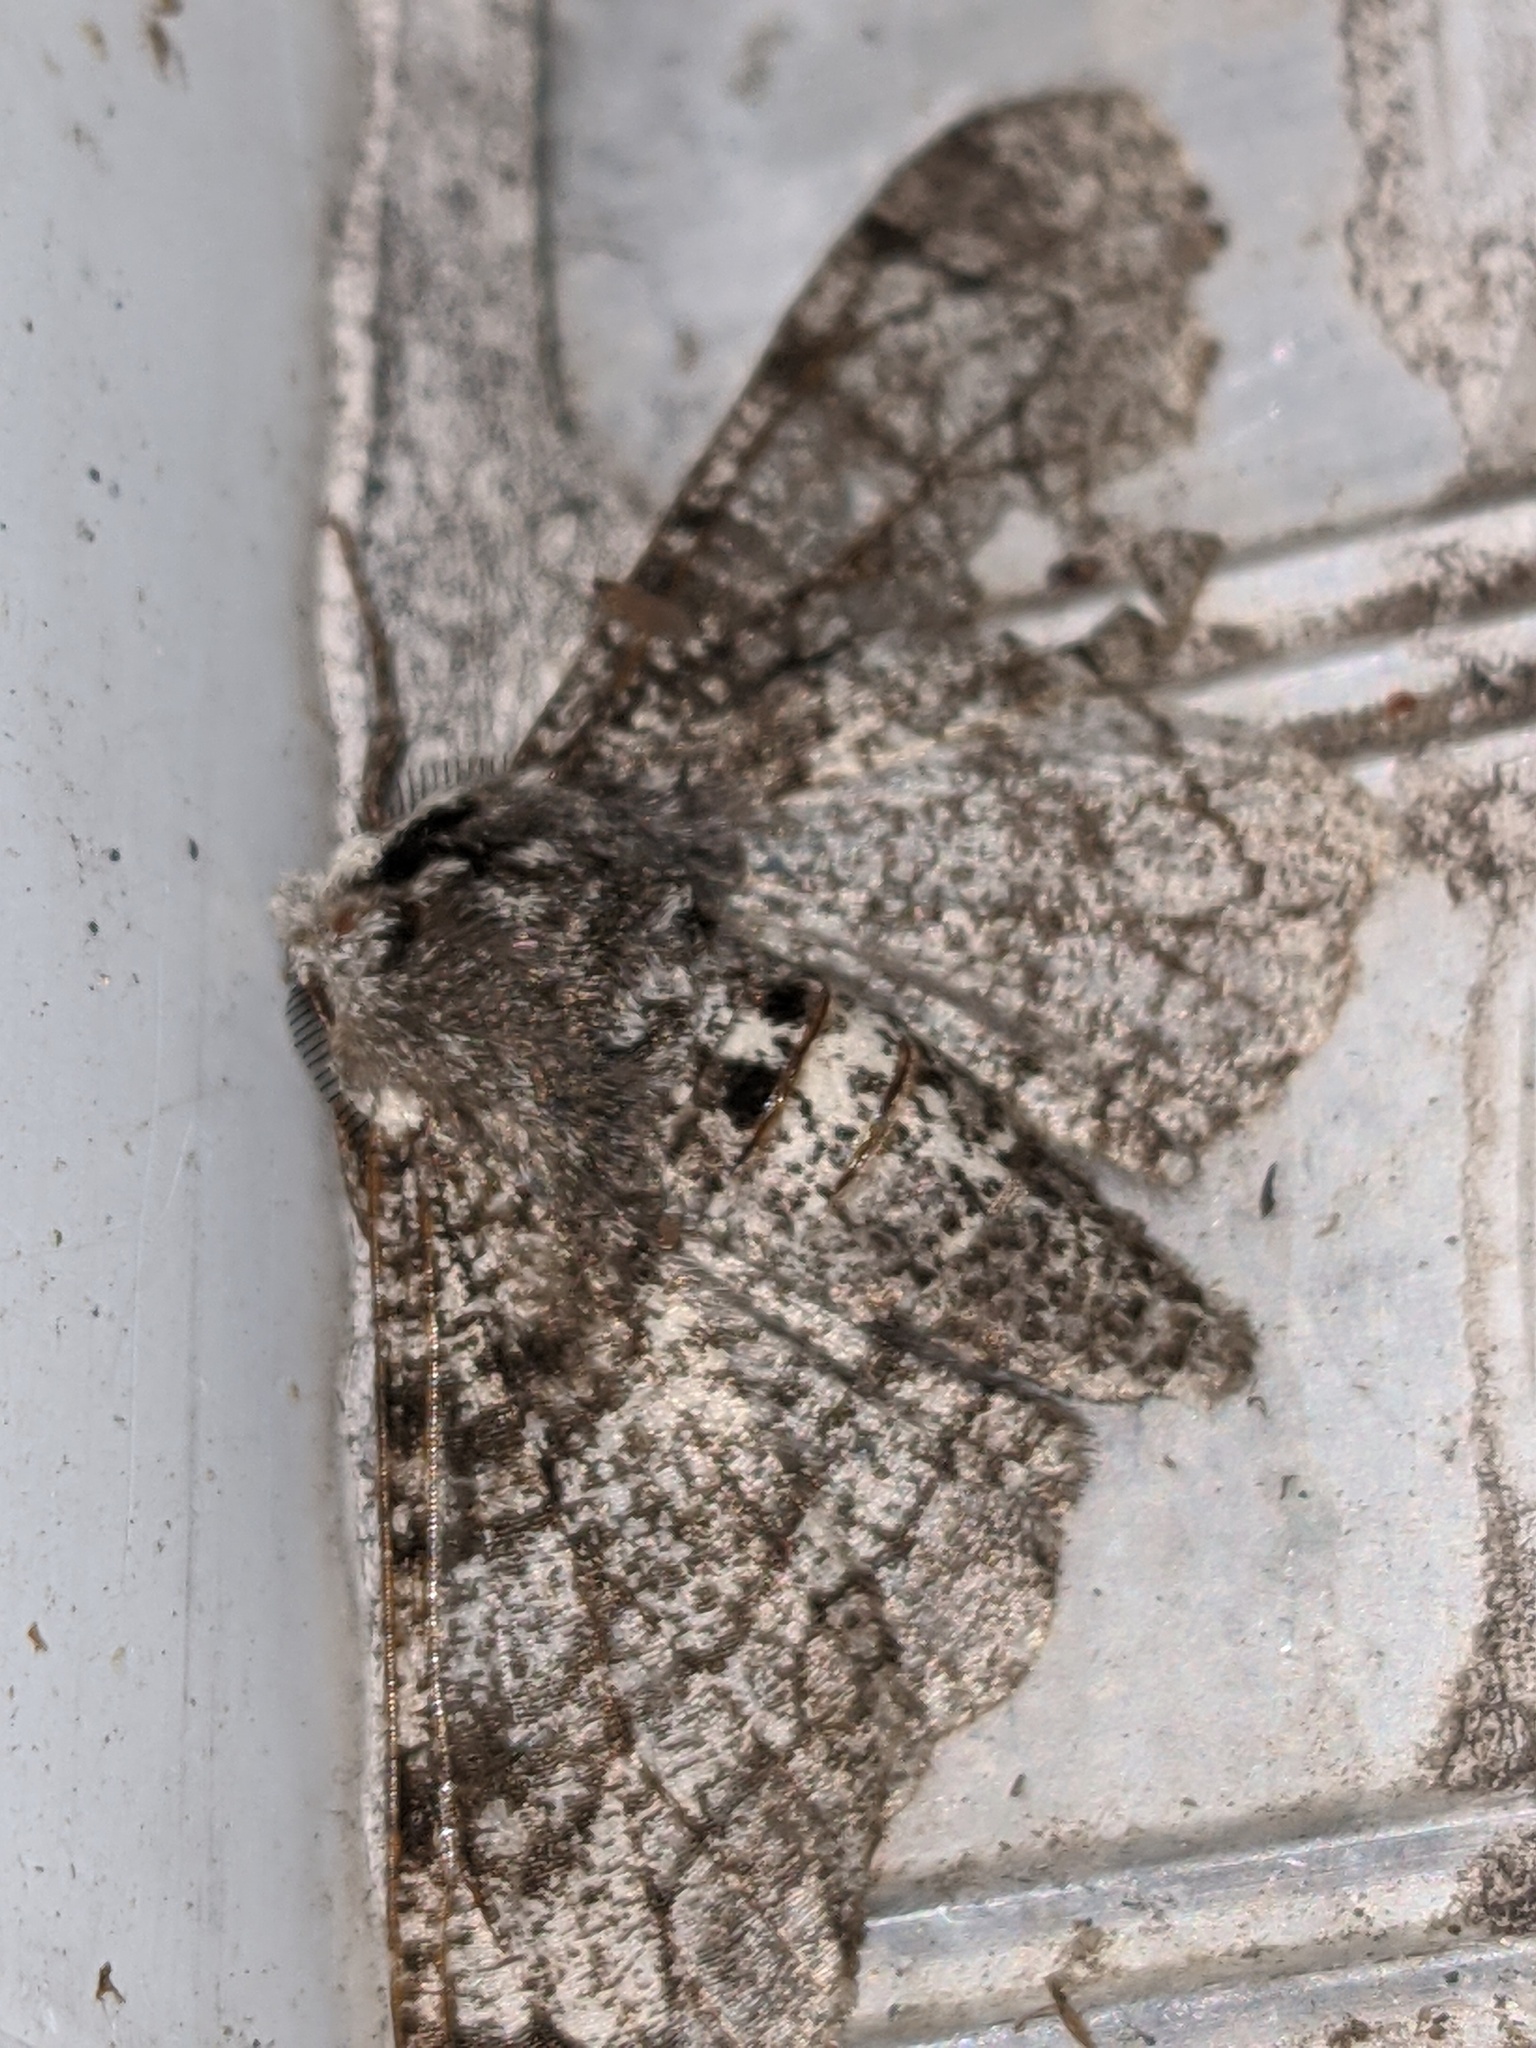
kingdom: Animalia
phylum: Arthropoda
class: Insecta
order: Lepidoptera
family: Geometridae
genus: Biston
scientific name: Biston betularia
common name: Peppered moth
